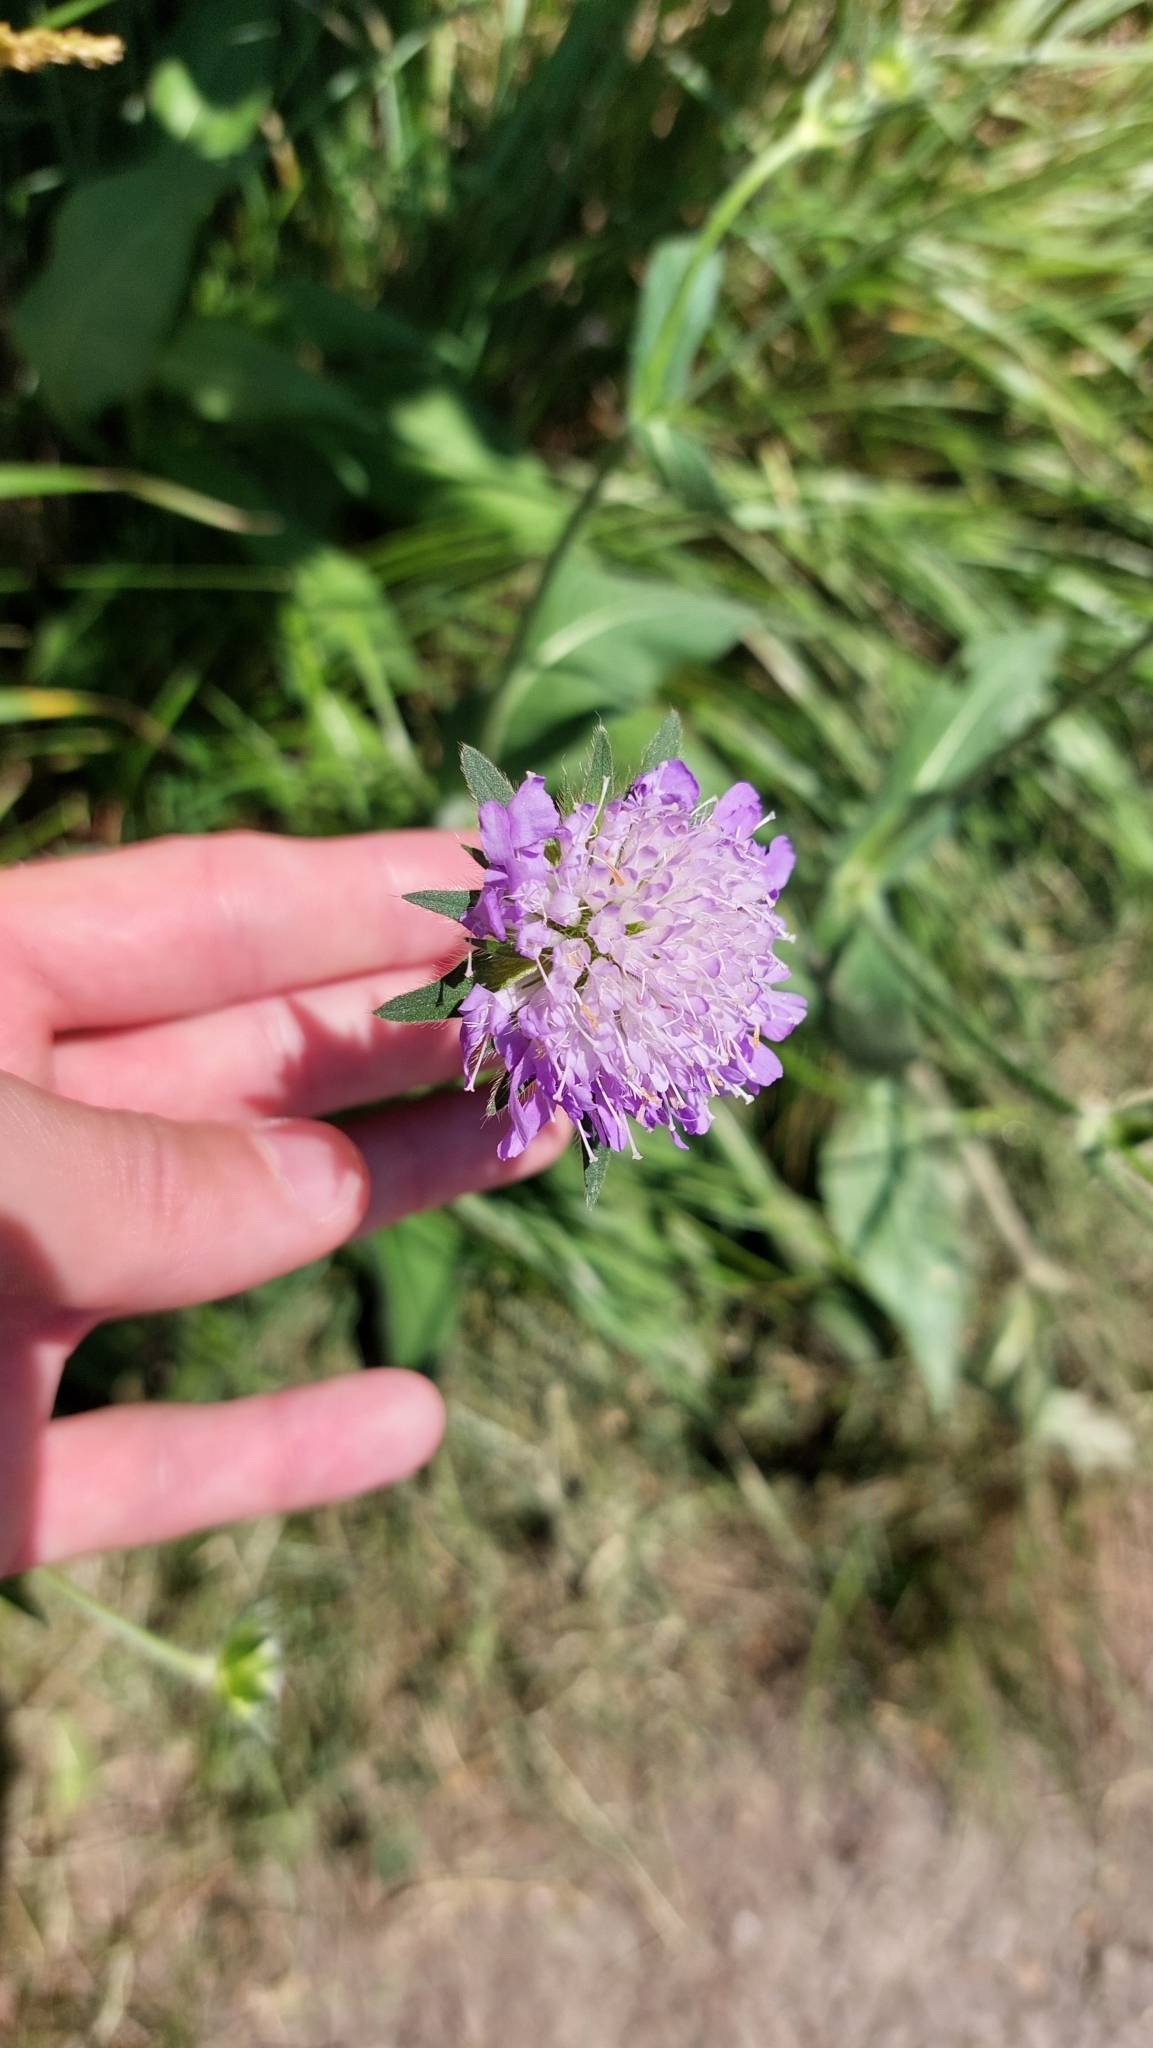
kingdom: Plantae
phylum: Tracheophyta
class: Magnoliopsida
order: Dipsacales
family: Caprifoliaceae
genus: Knautia
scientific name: Knautia arvensis
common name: Field scabiosa
